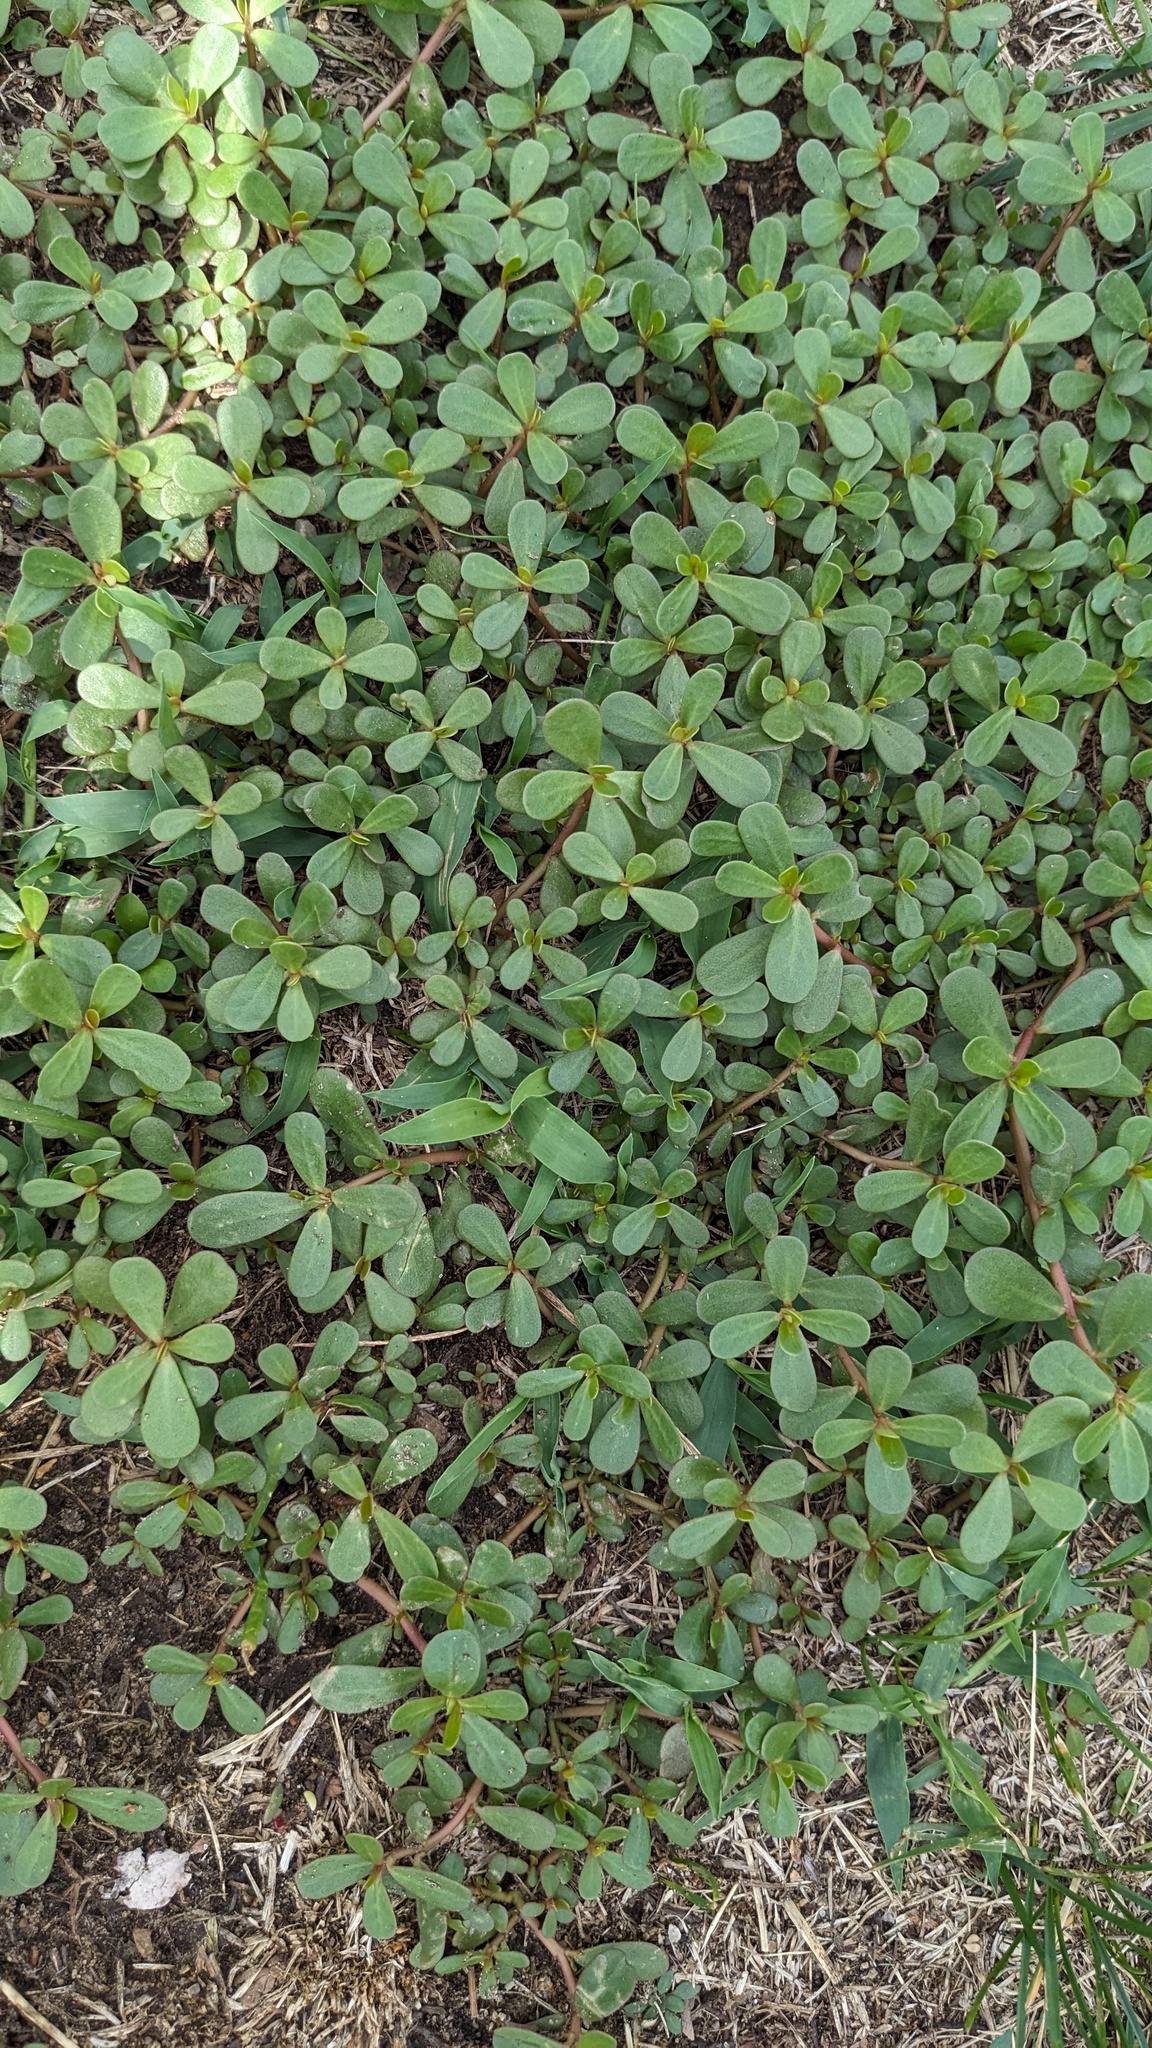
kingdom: Plantae
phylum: Tracheophyta
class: Magnoliopsida
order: Caryophyllales
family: Portulacaceae
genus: Portulaca
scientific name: Portulaca oleracea
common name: Common purslane
